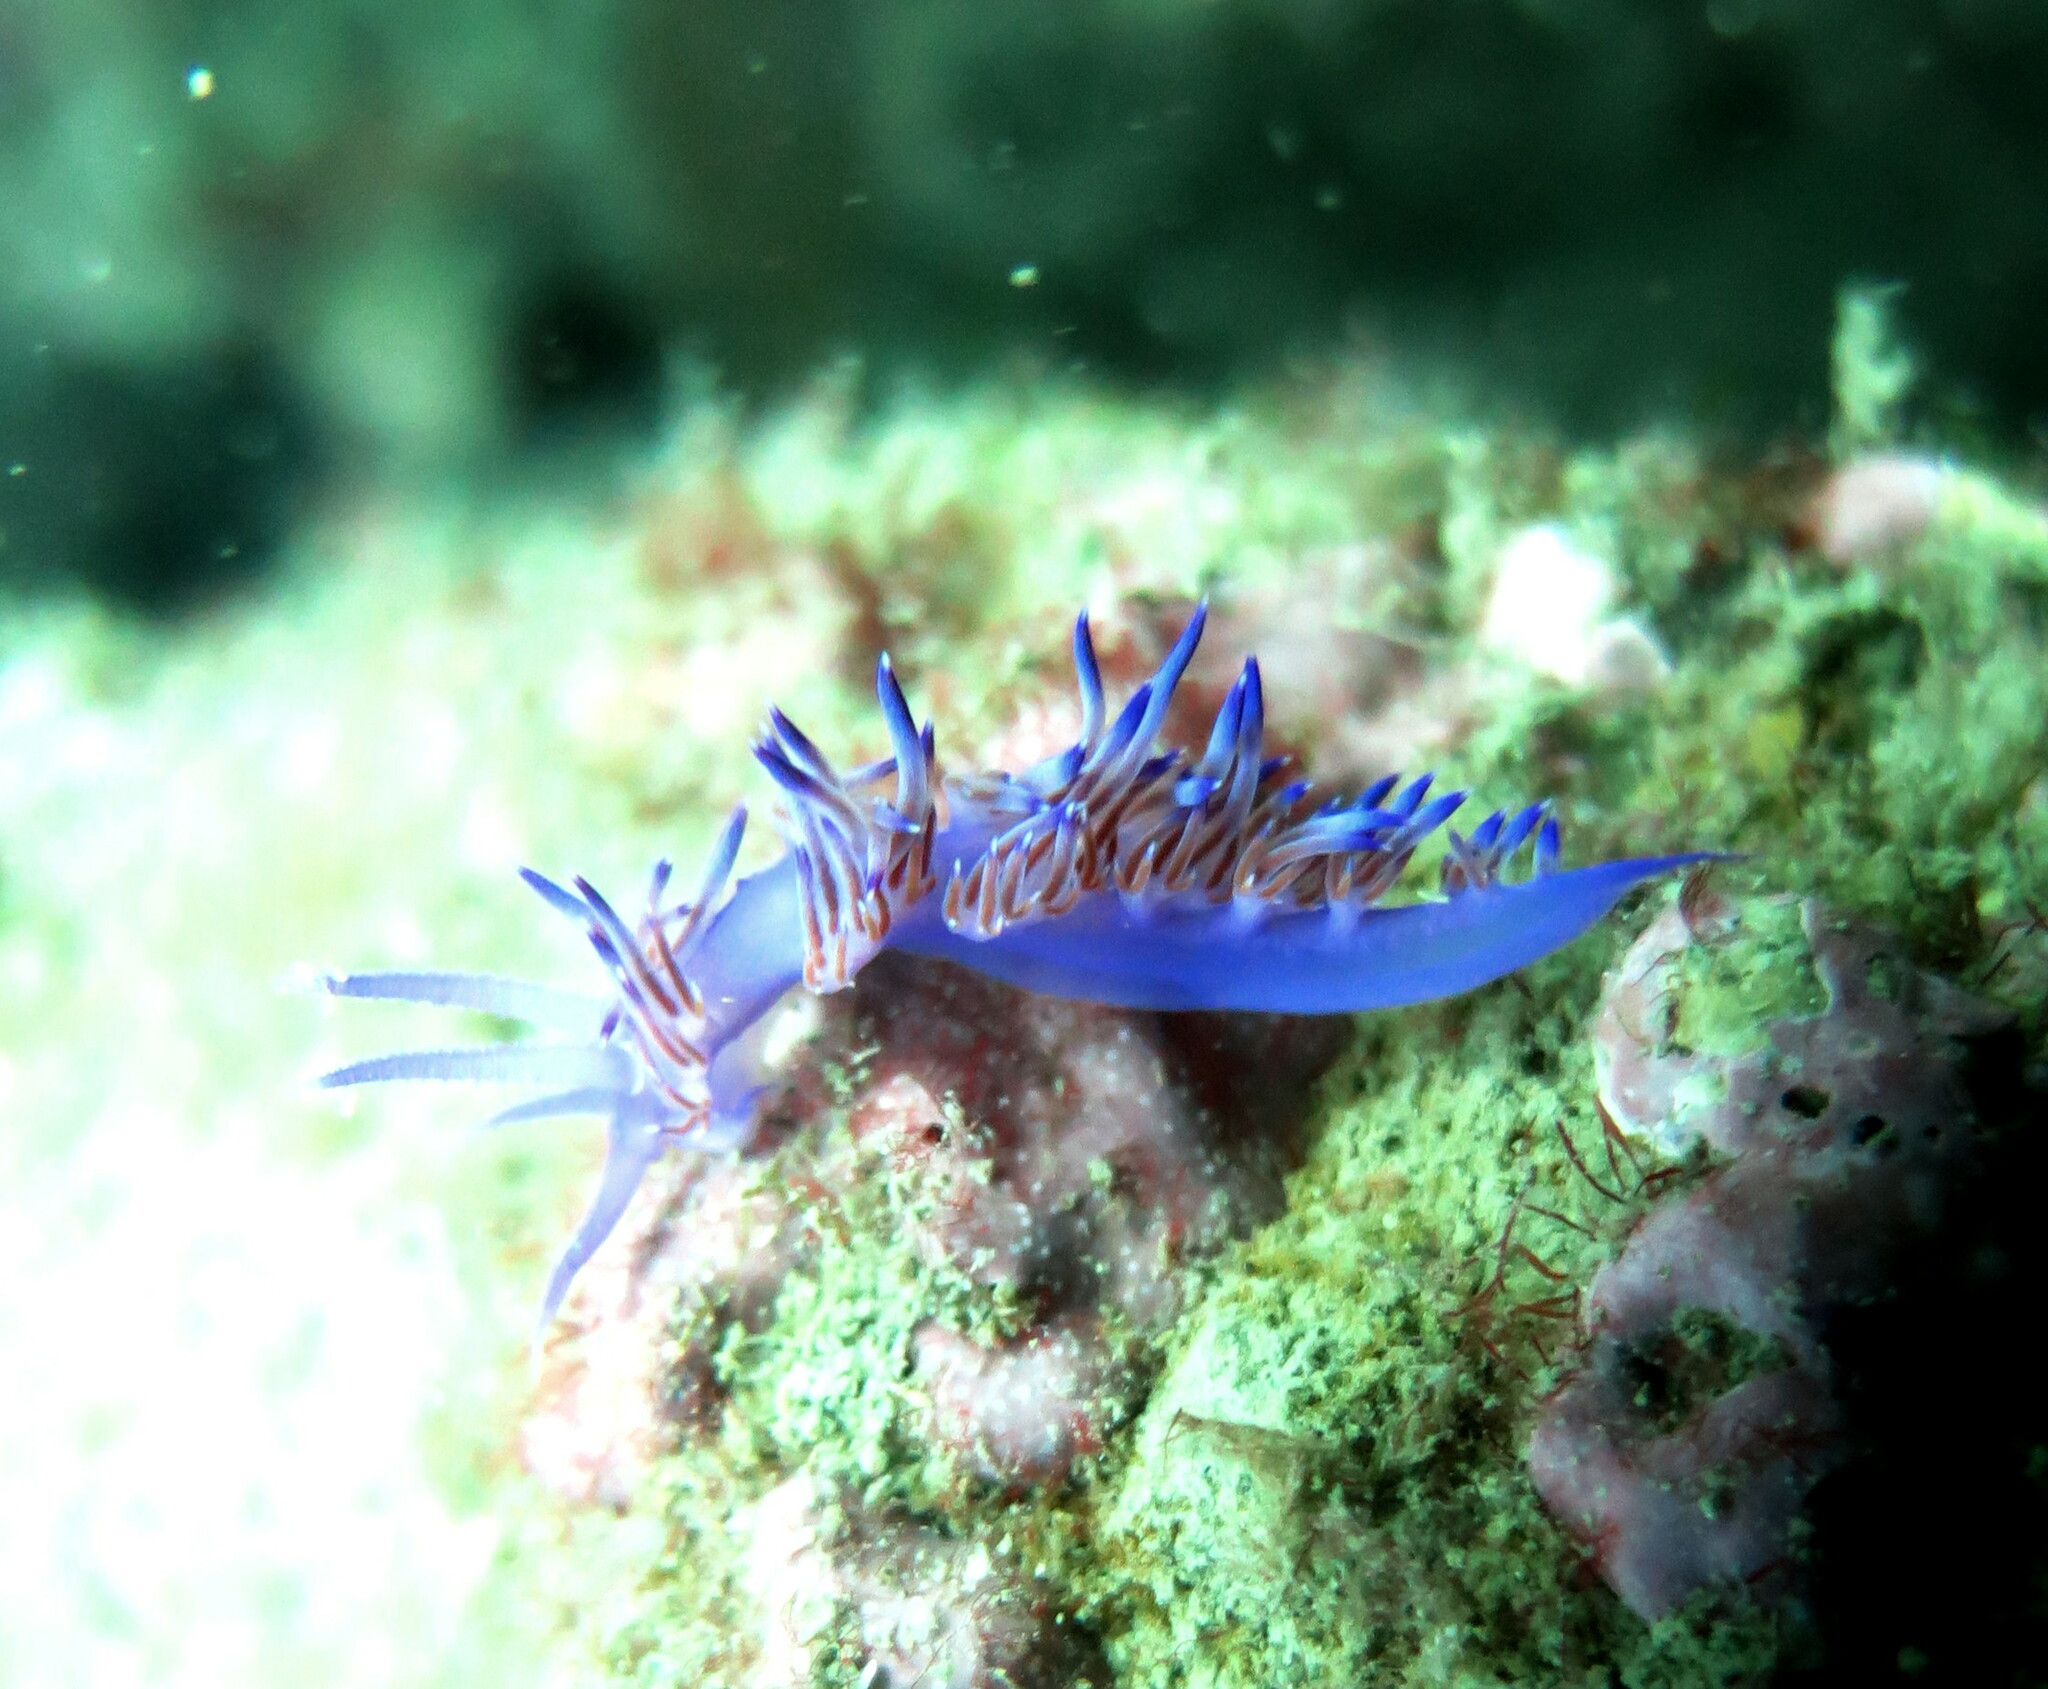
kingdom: Animalia
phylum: Mollusca
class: Gastropoda
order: Nudibranchia
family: Flabellinidae
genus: Flabellina
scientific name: Flabellina affinis
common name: Mediterranean violet aeolid
